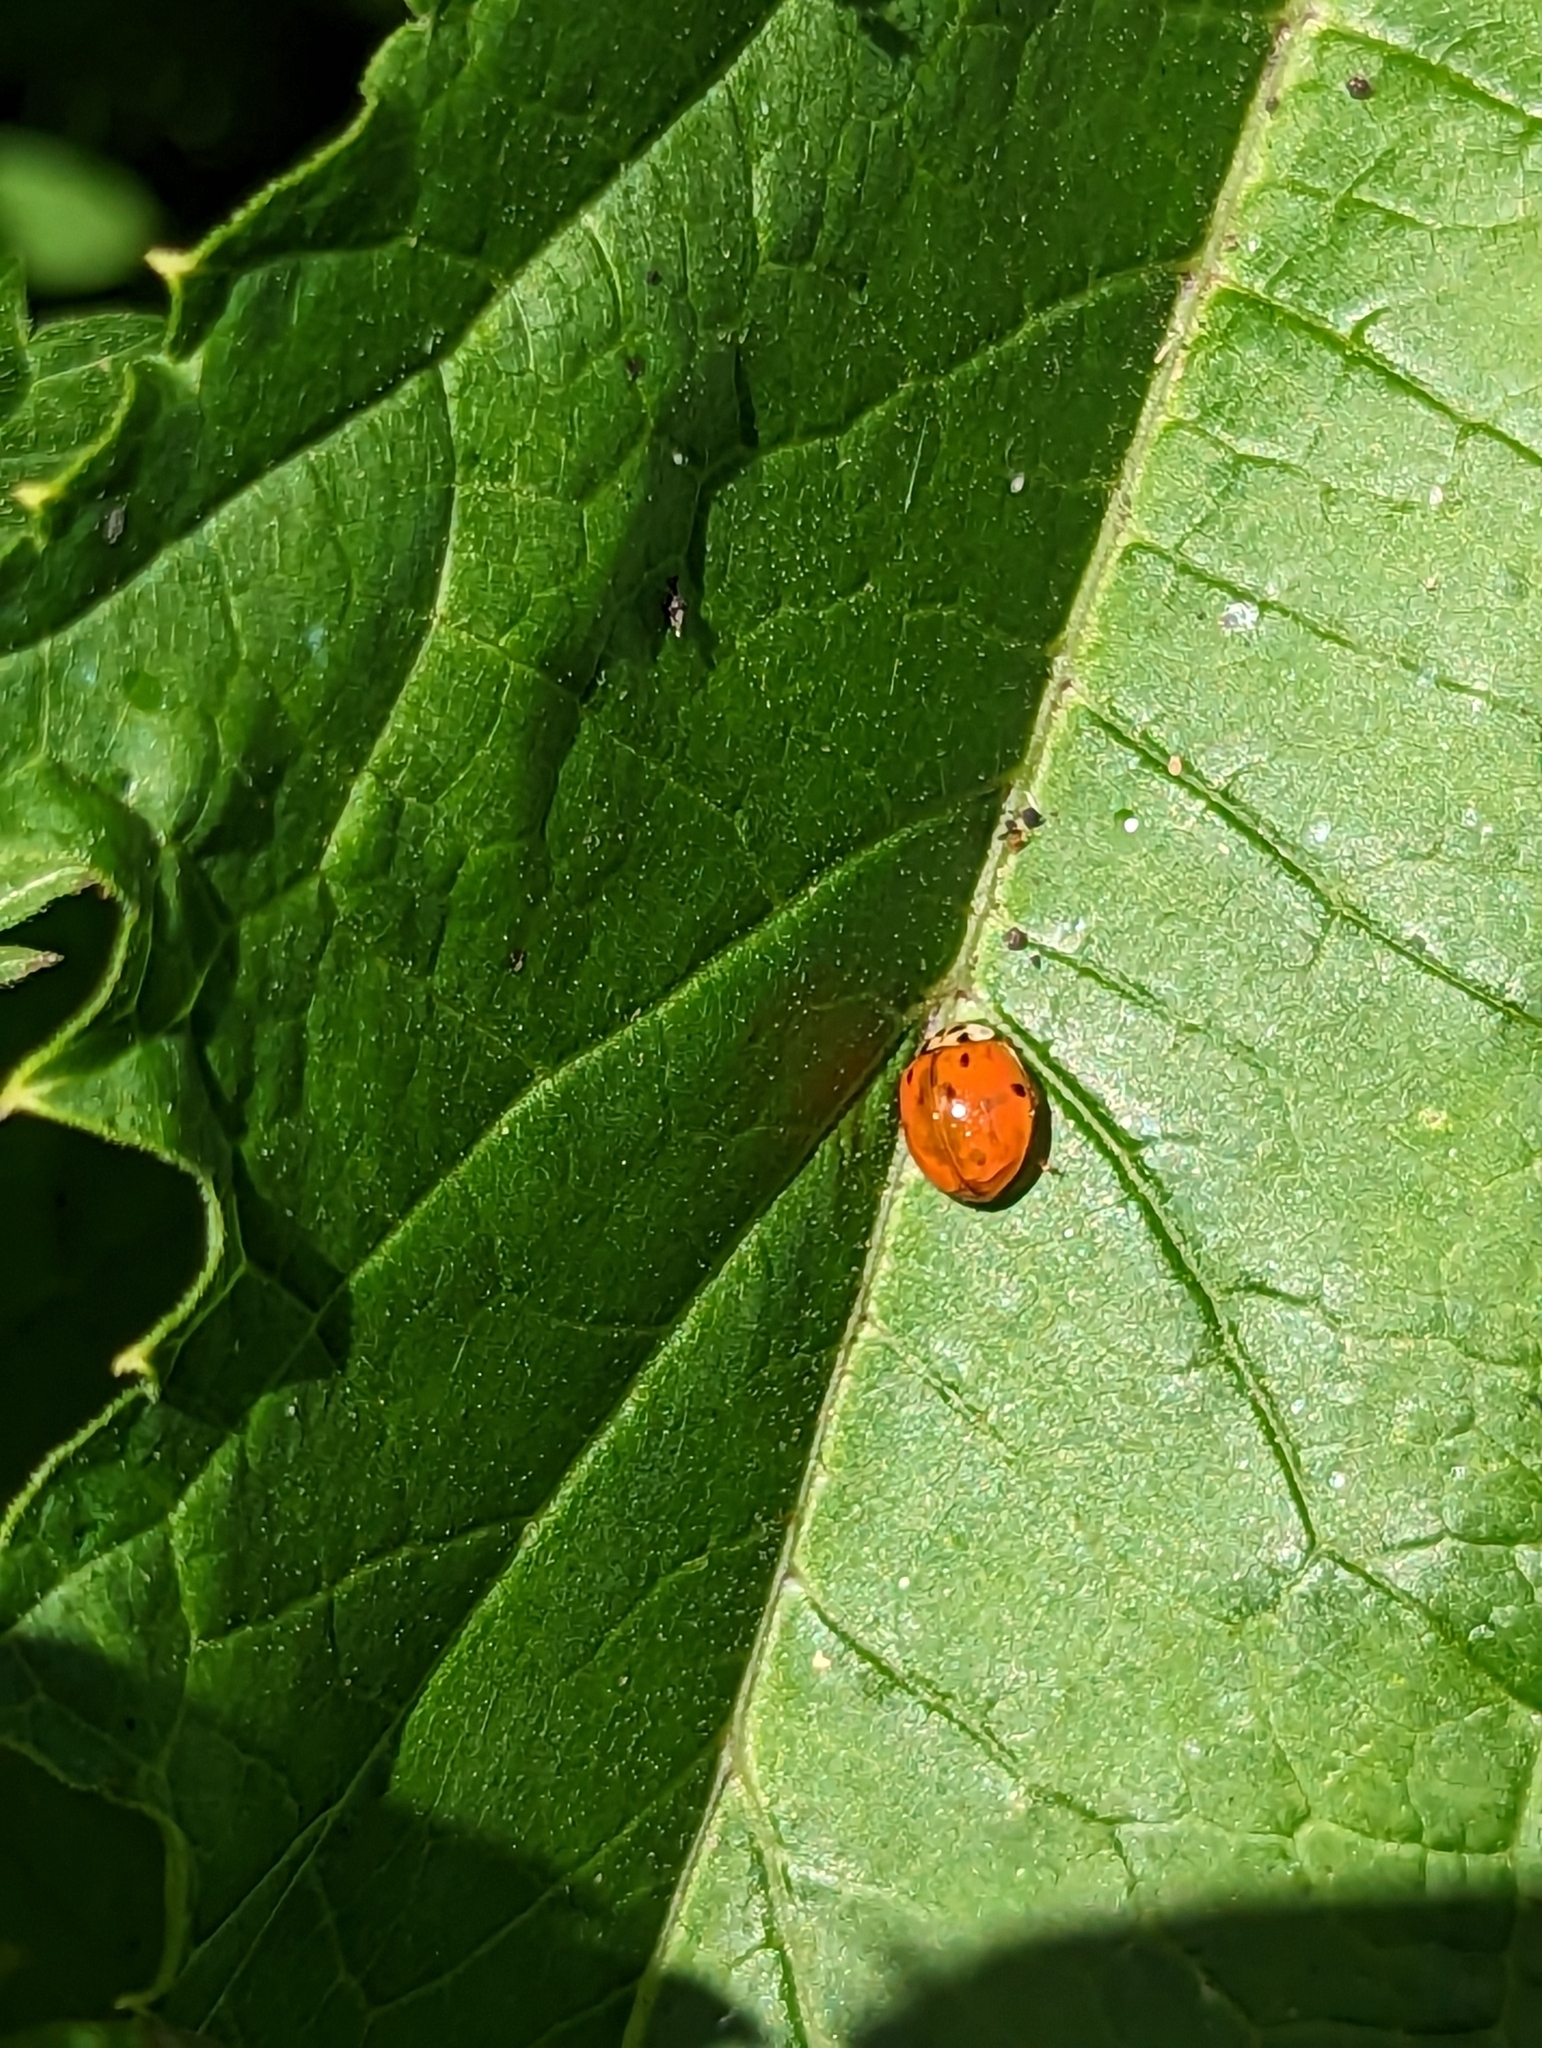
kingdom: Animalia
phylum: Arthropoda
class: Insecta
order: Coleoptera
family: Coccinellidae
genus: Harmonia
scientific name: Harmonia axyridis
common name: Harlequin ladybird
